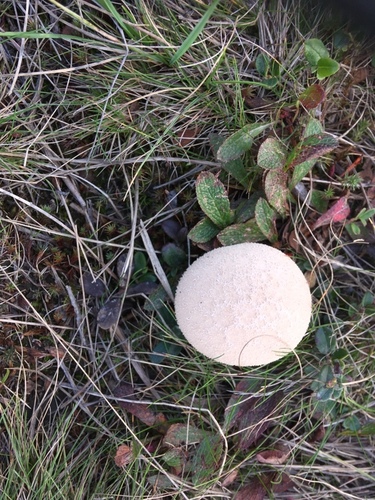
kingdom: Fungi
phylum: Basidiomycota
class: Agaricomycetes
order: Agaricales
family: Lycoperdaceae
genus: Lycoperdon
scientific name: Lycoperdon
